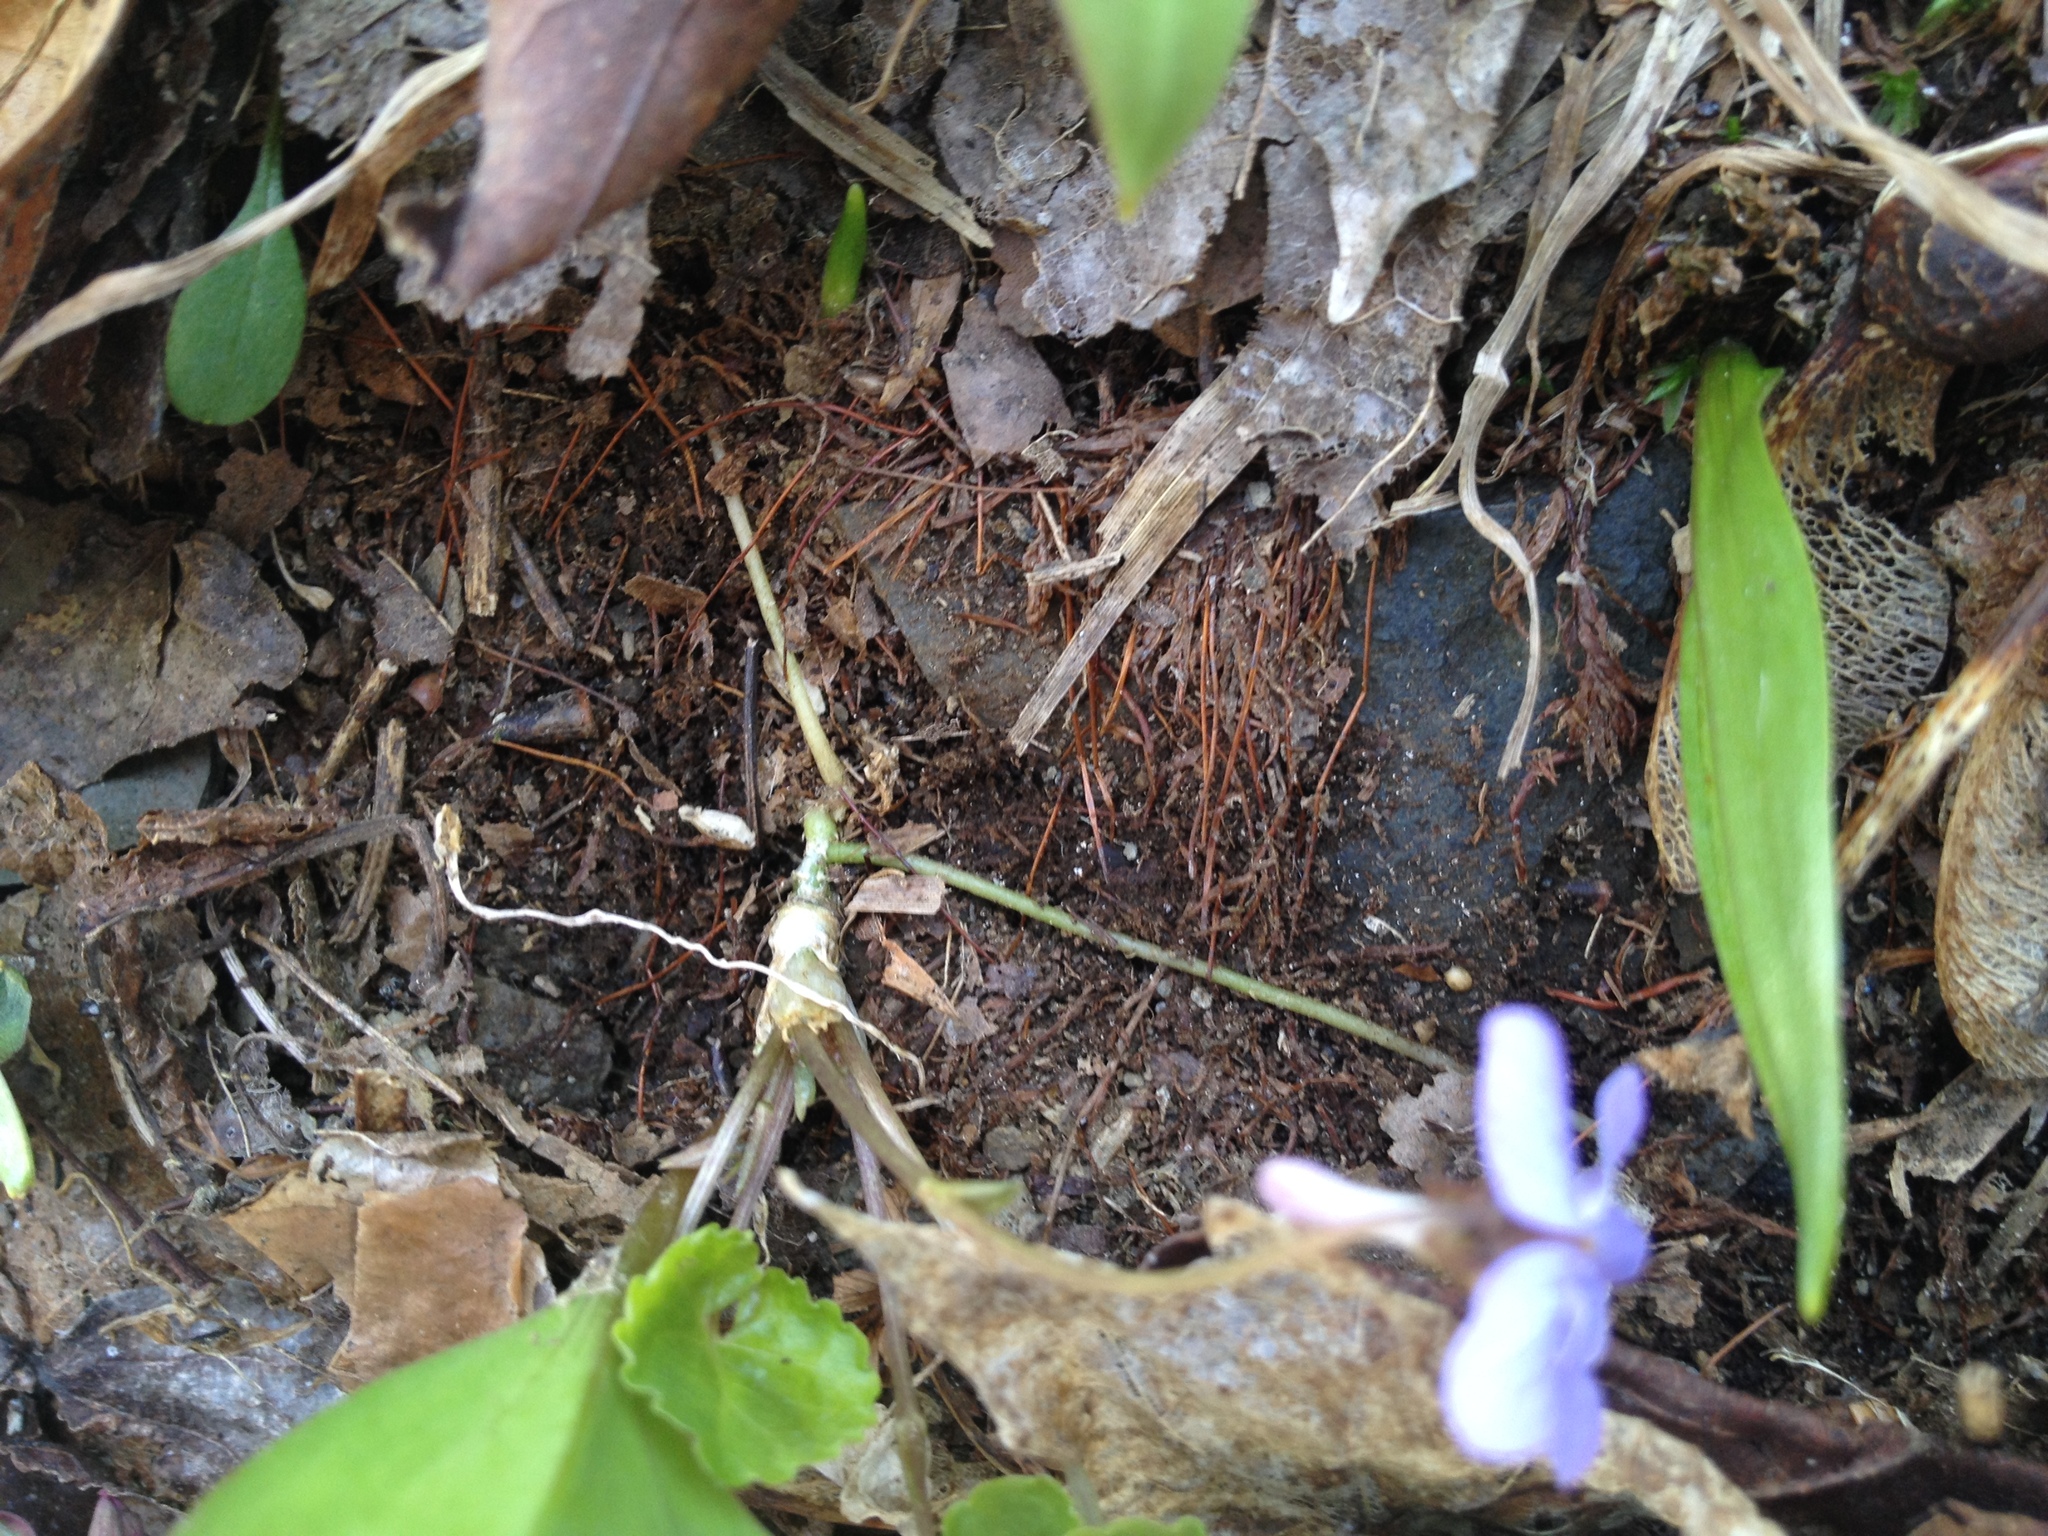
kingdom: Plantae
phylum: Tracheophyta
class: Magnoliopsida
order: Malpighiales
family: Violaceae
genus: Viola
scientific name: Viola selkirkii
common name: Selkirk's violet
